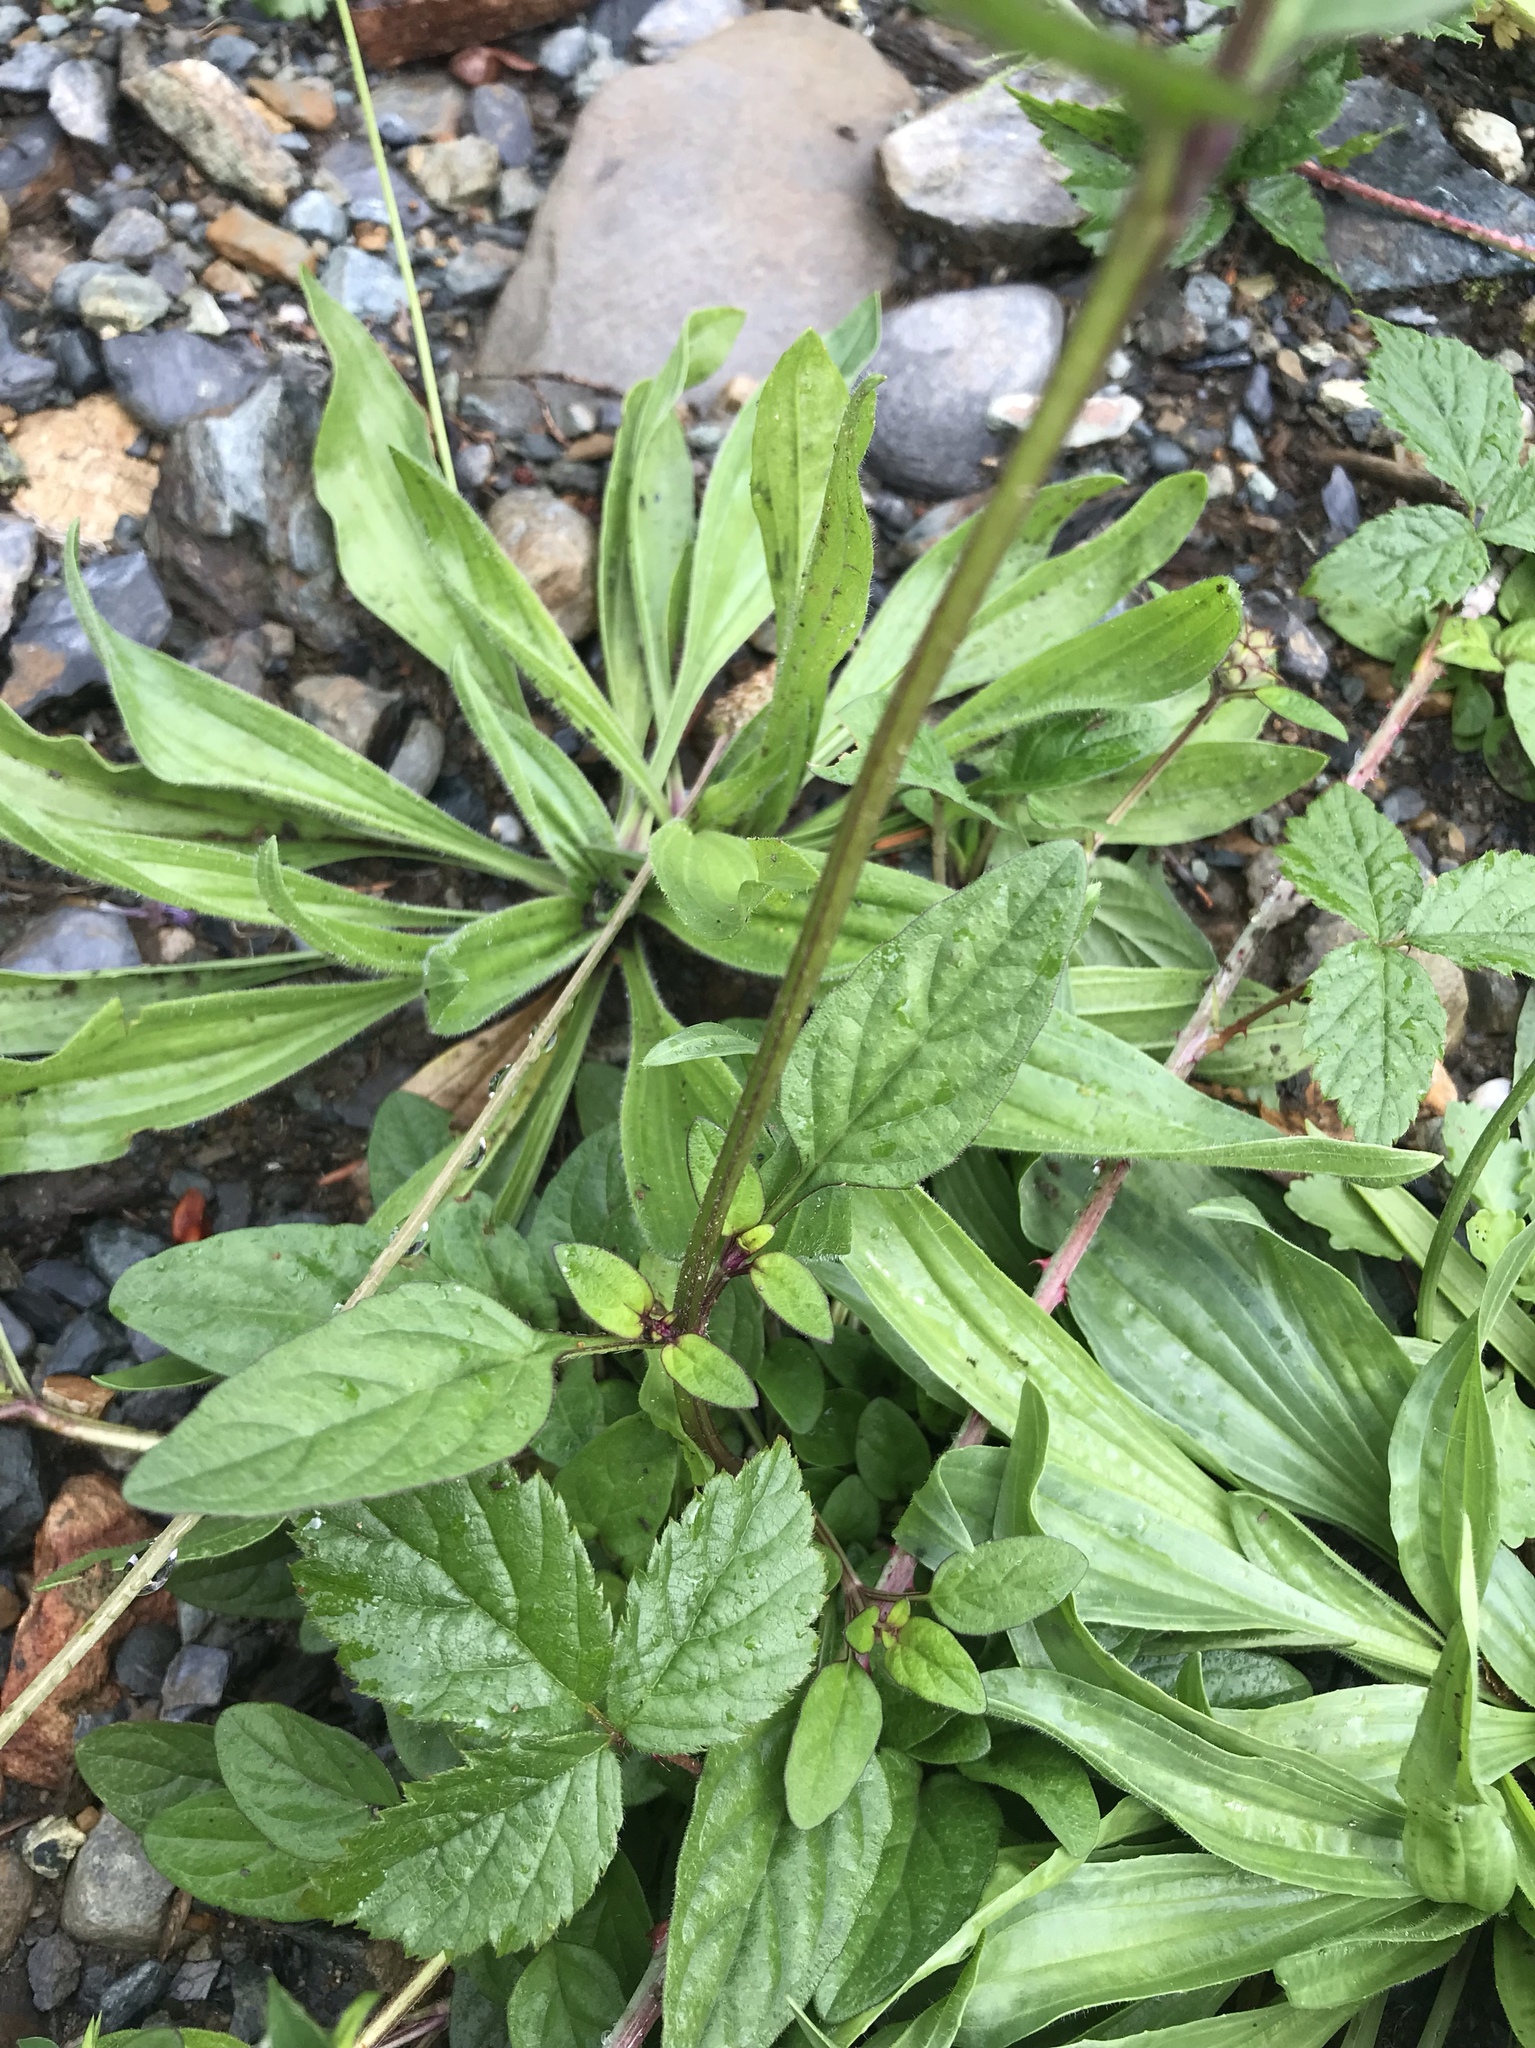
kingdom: Plantae
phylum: Tracheophyta
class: Magnoliopsida
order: Lamiales
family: Lamiaceae
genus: Prunella
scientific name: Prunella vulgaris
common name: Heal-all
